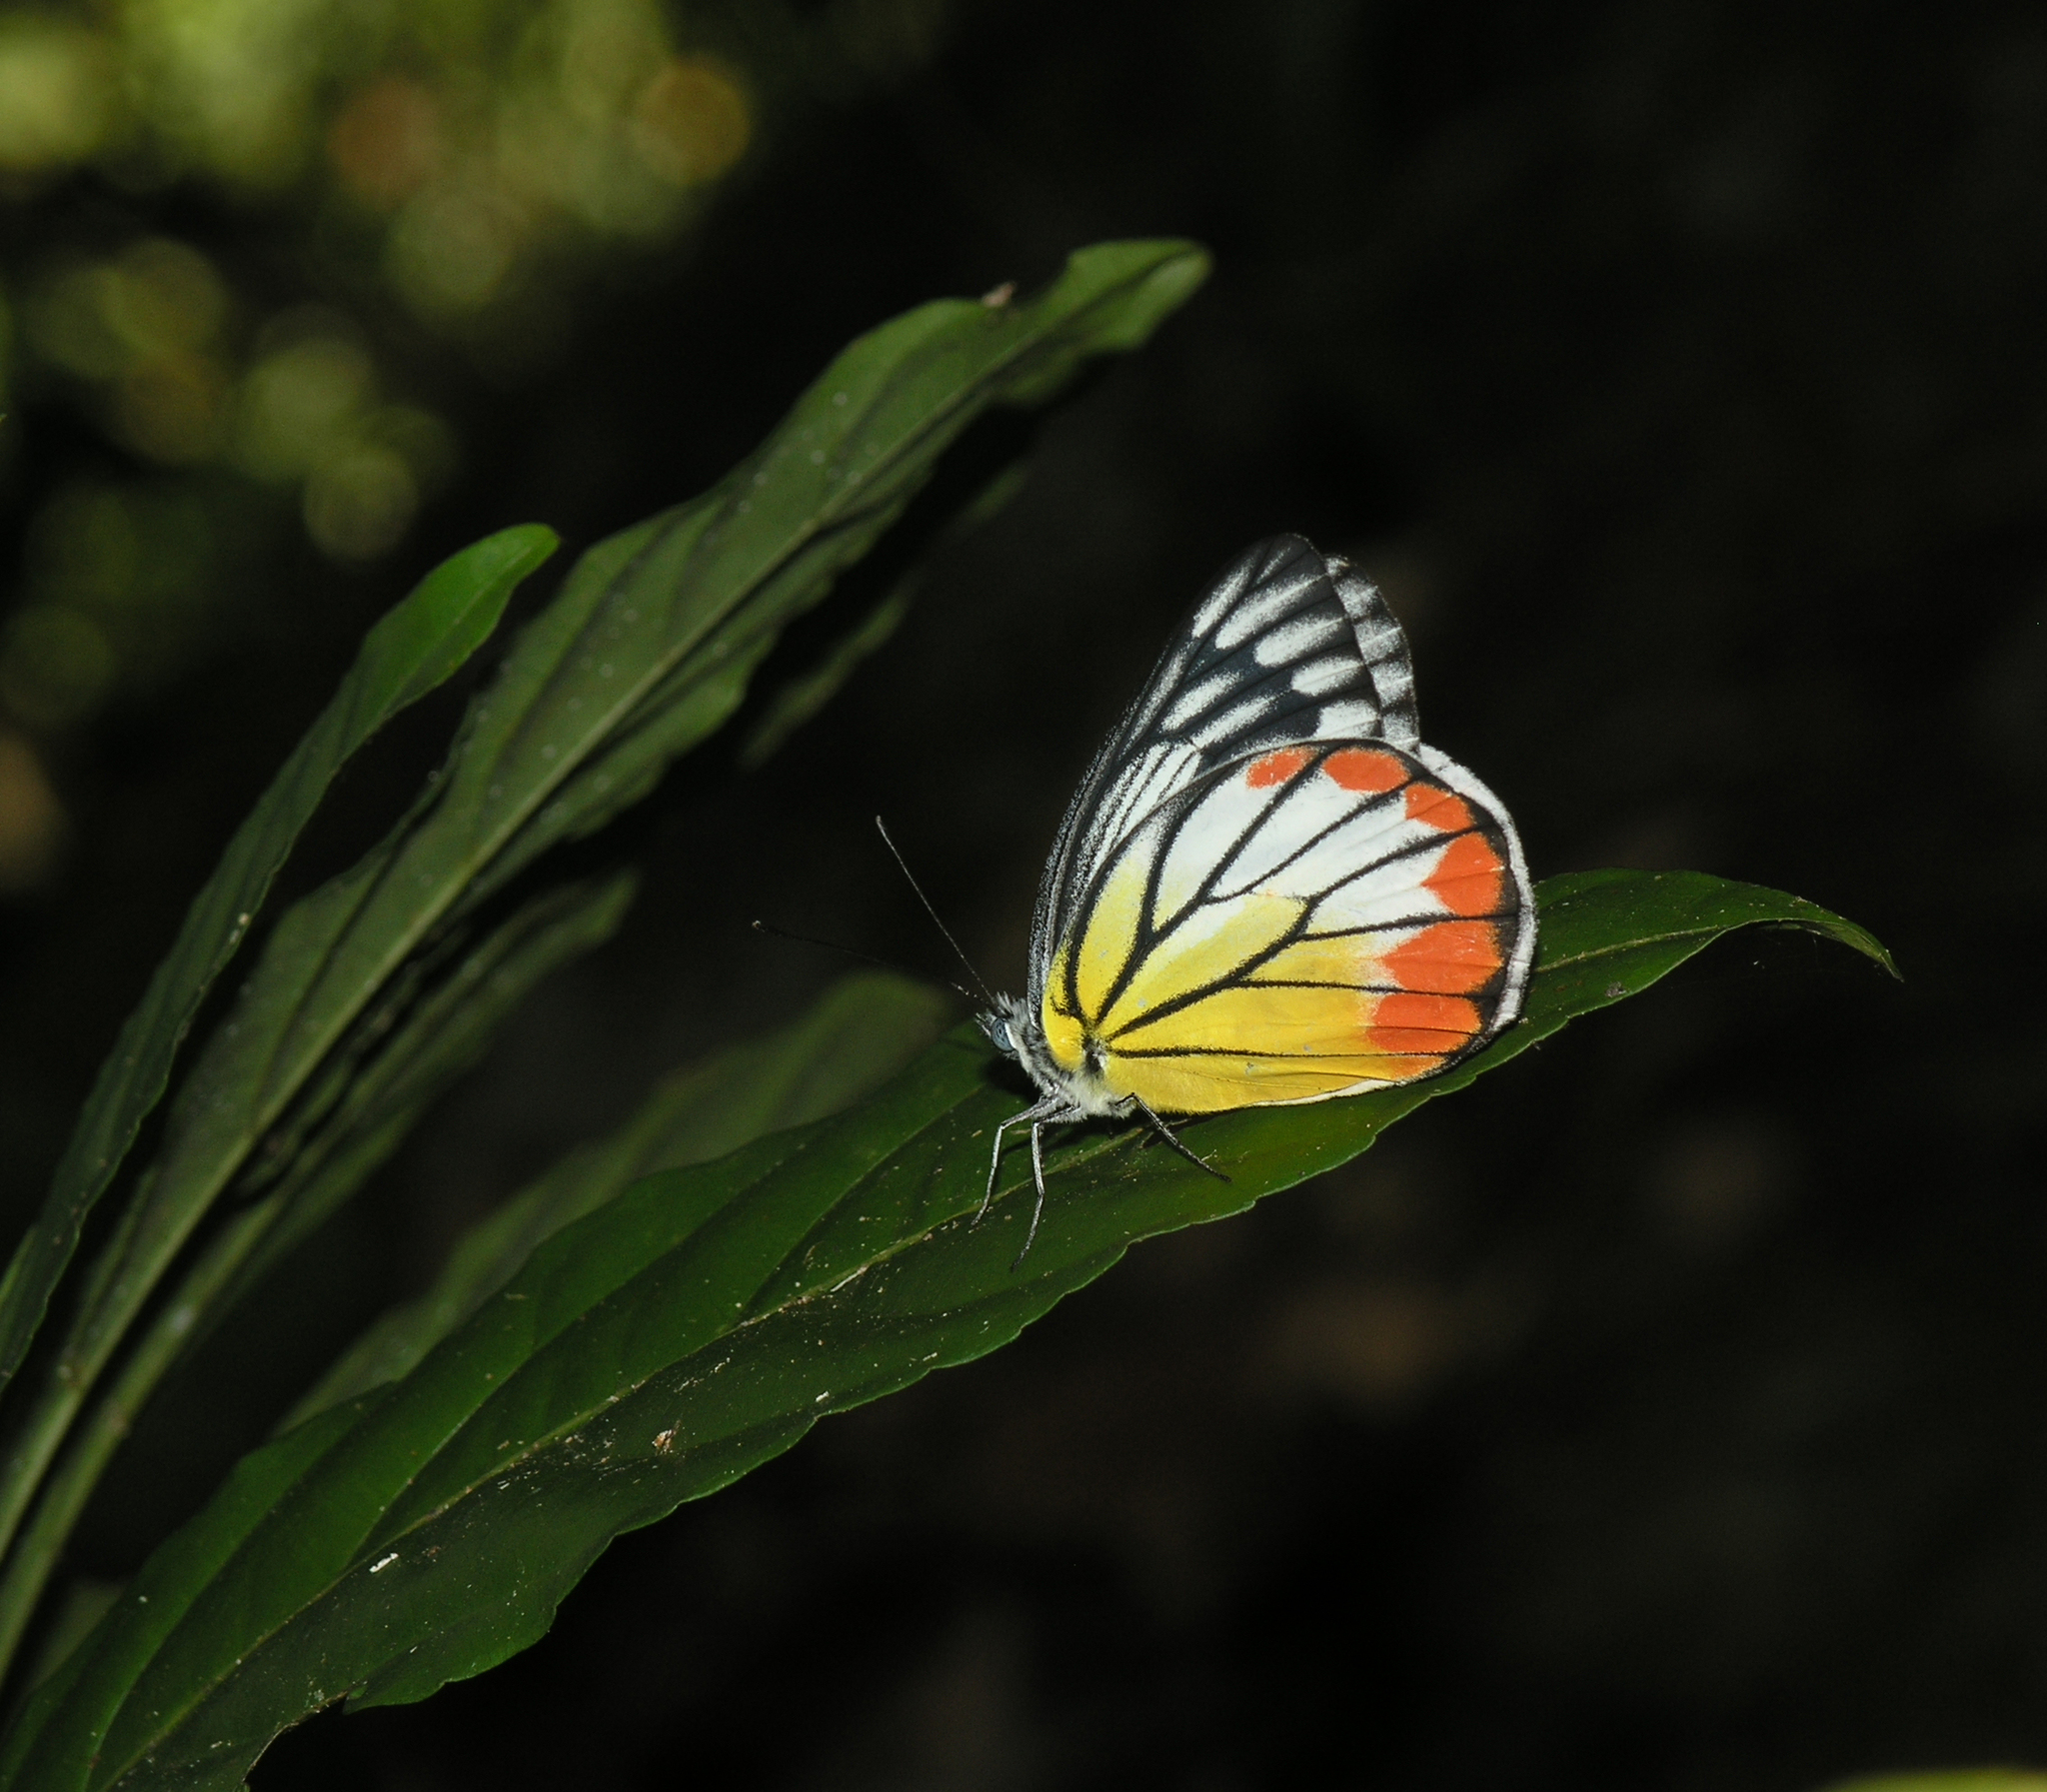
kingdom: Animalia
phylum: Arthropoda
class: Insecta
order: Lepidoptera
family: Pieridae
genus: Delias
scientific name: Delias hyparete
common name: Painted jezebel
